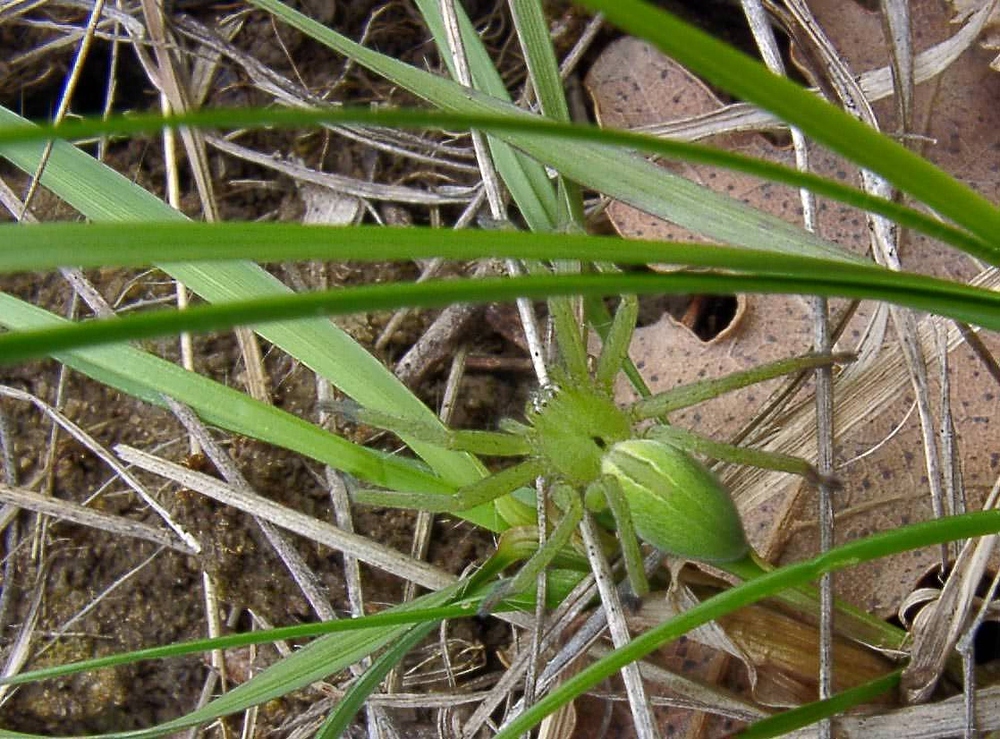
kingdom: Animalia
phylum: Arthropoda
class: Arachnida
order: Araneae
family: Sparassidae
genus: Micrommata
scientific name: Micrommata ligurina
